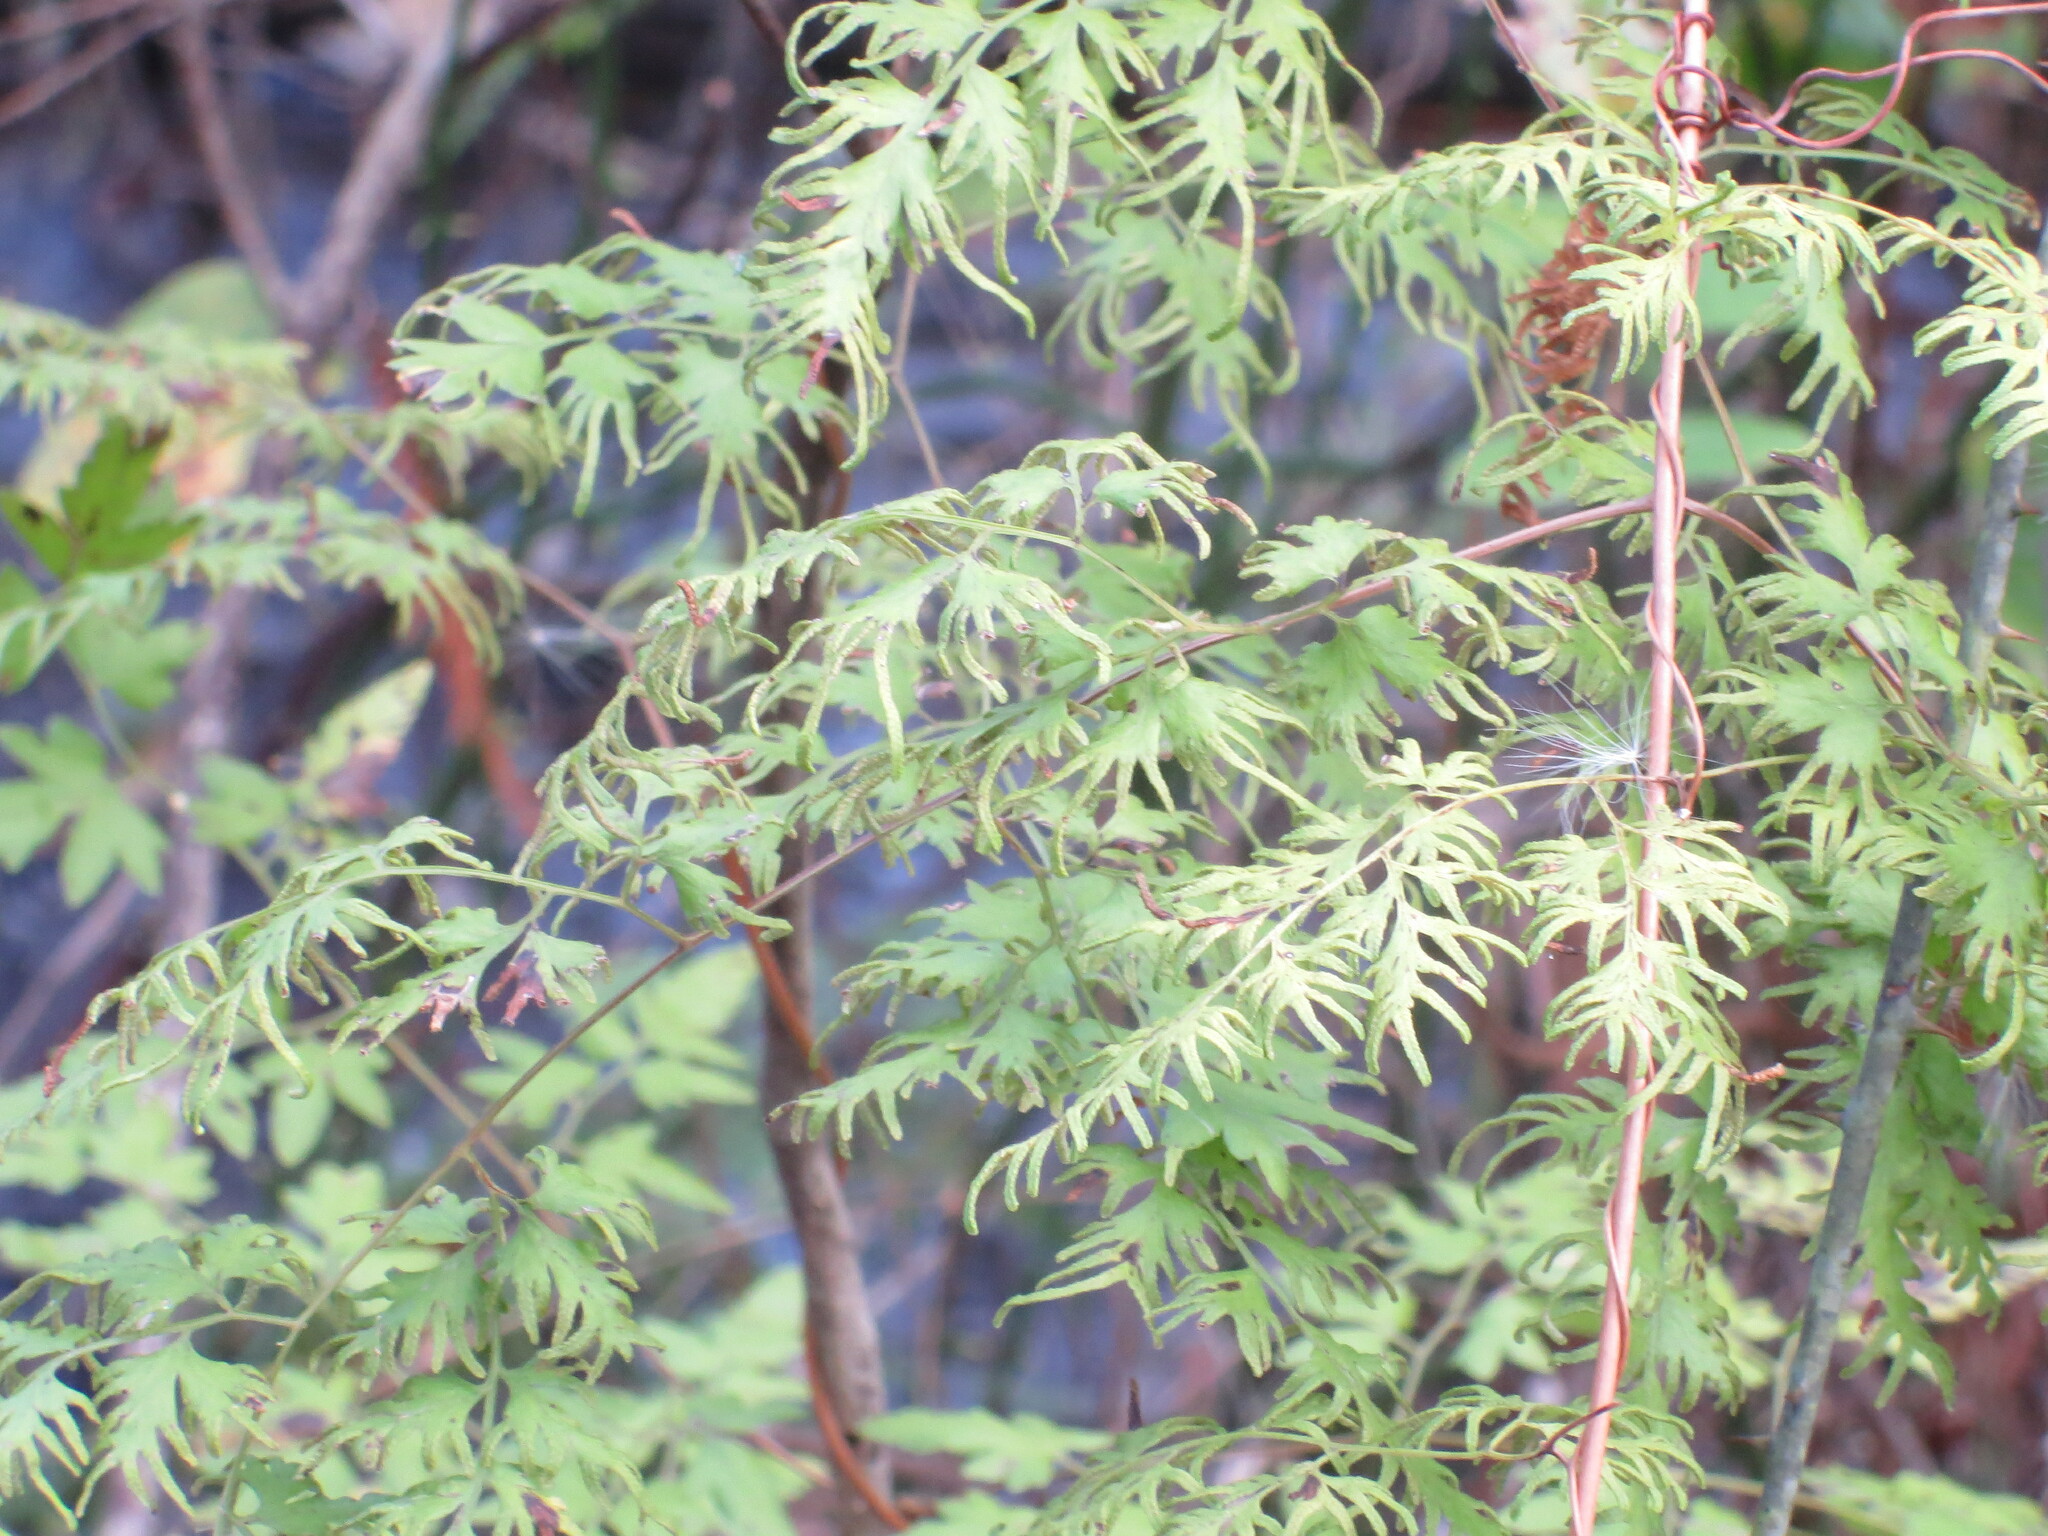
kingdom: Plantae
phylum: Tracheophyta
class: Polypodiopsida
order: Schizaeales
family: Lygodiaceae
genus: Lygodium
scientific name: Lygodium japonicum
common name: Japanese climbing fern
